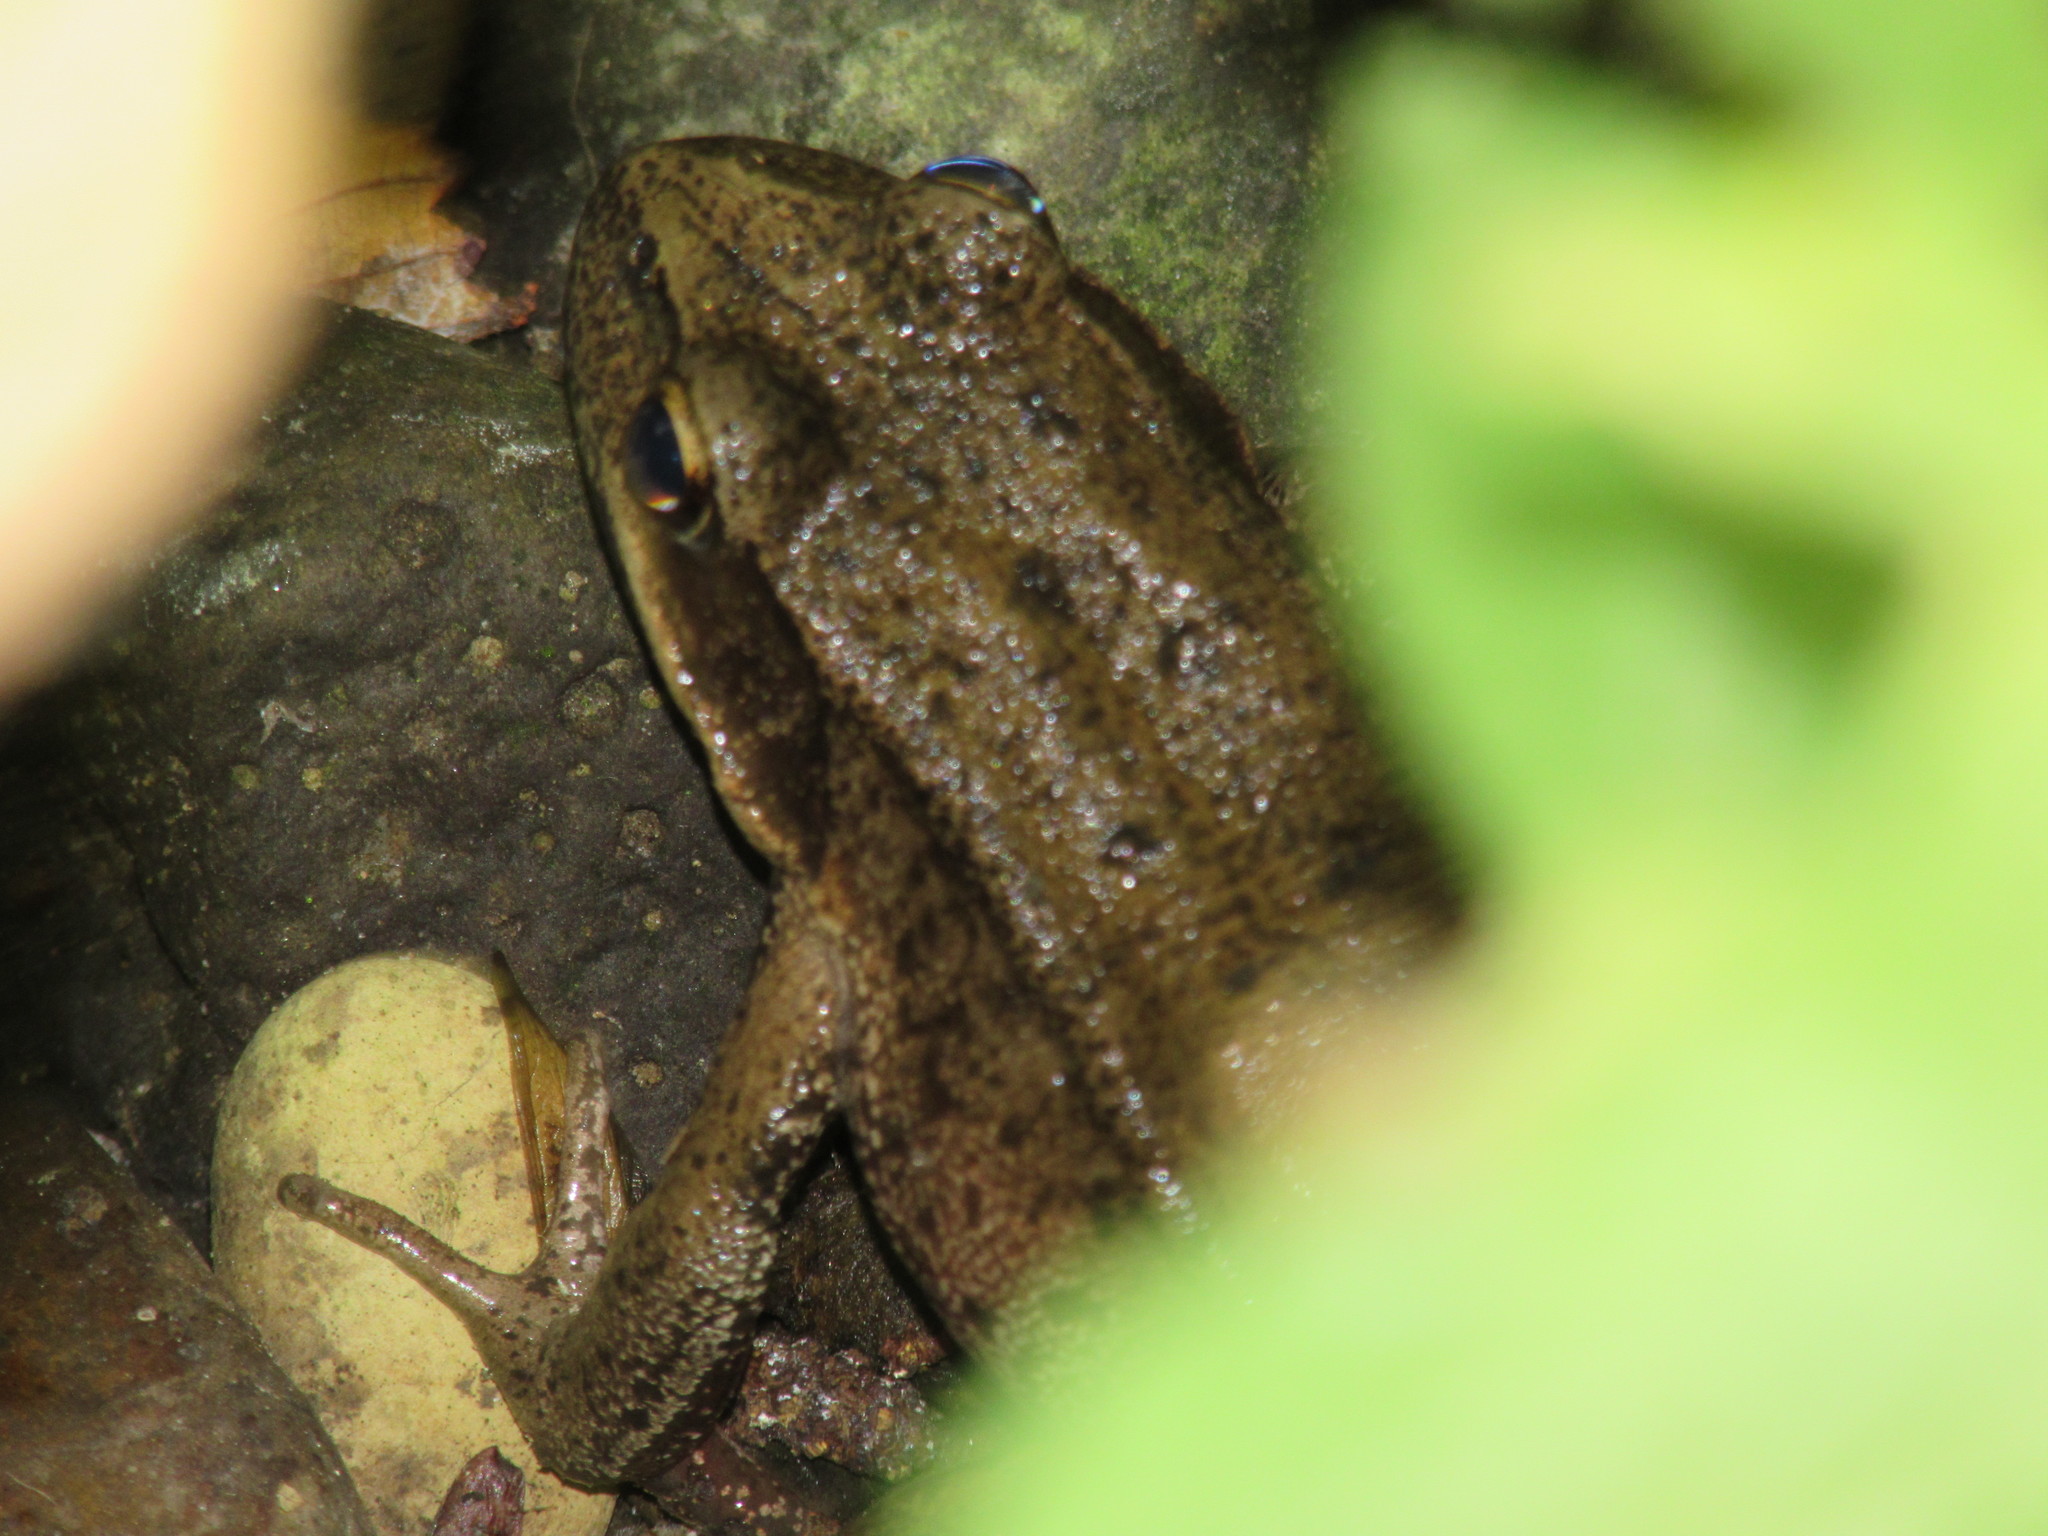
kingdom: Animalia
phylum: Chordata
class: Amphibia
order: Anura
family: Ranidae
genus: Rana
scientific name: Rana aurora
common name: Red-legged frog
